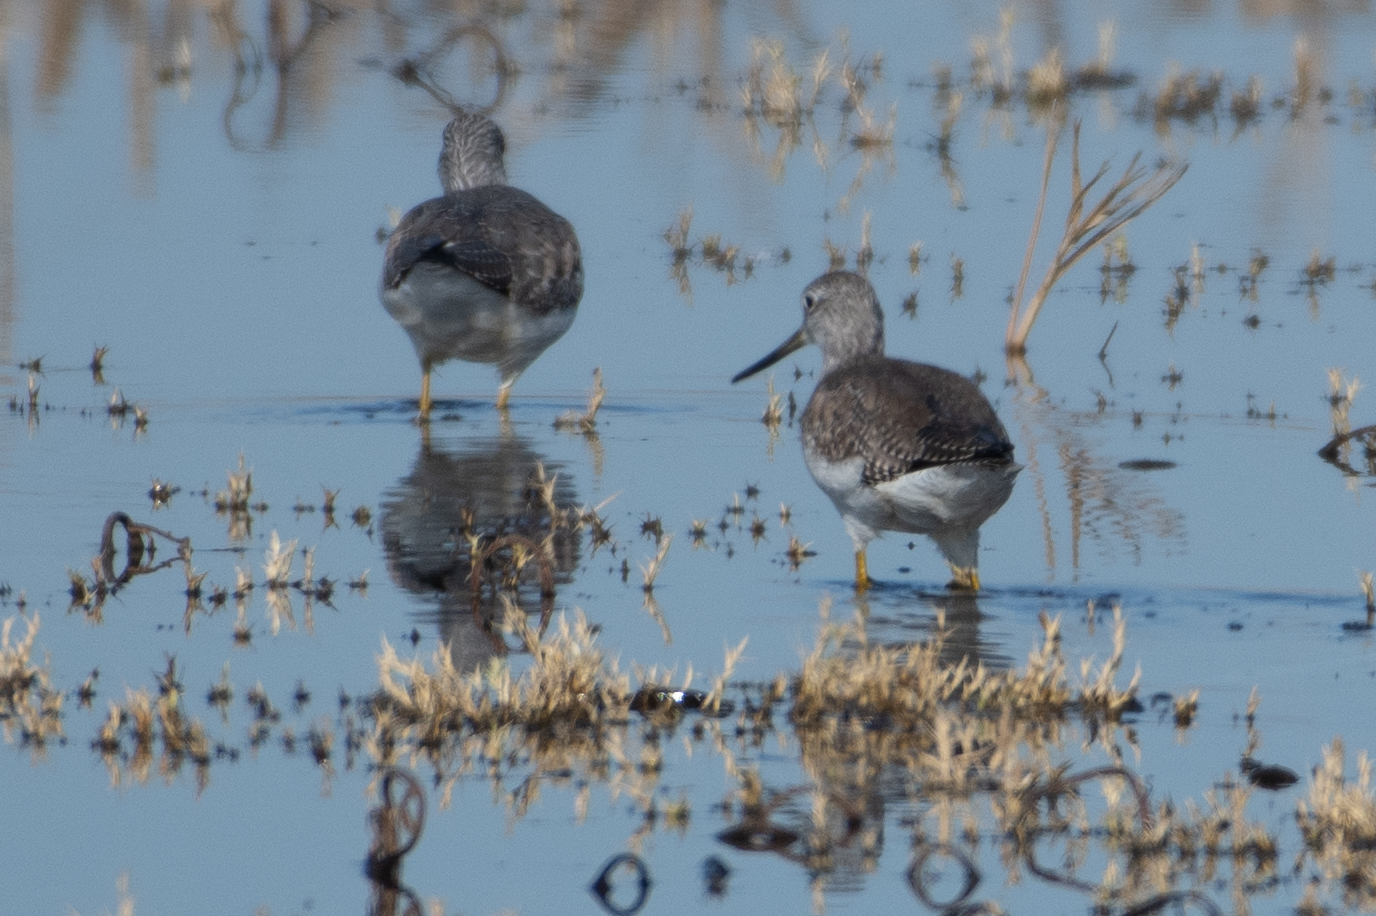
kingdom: Animalia
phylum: Chordata
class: Aves
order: Charadriiformes
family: Scolopacidae
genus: Tringa
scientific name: Tringa melanoleuca
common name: Greater yellowlegs
